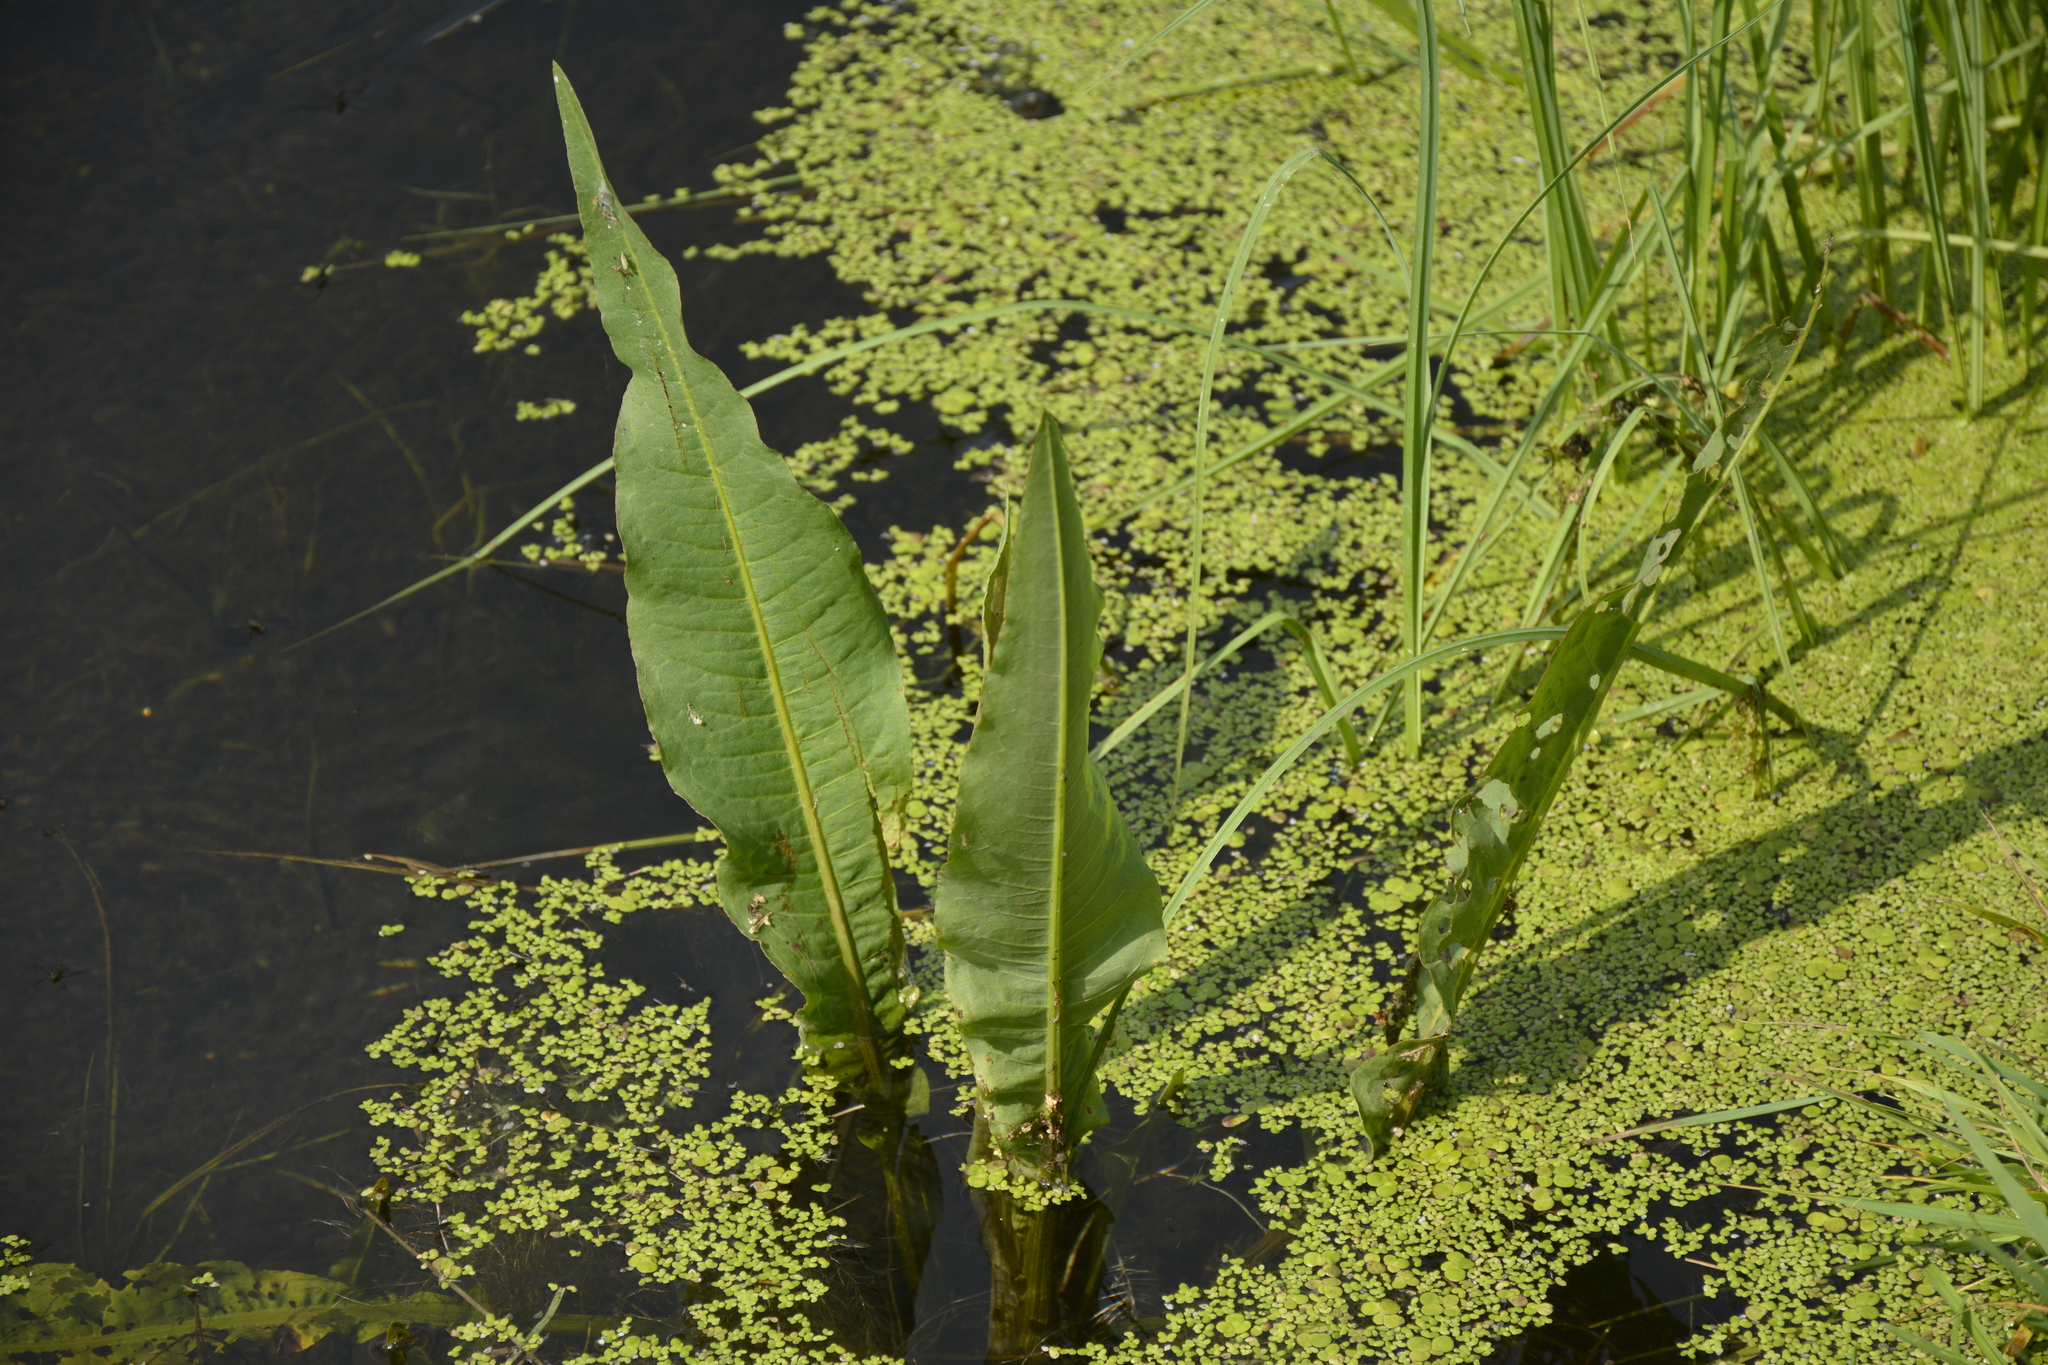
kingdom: Plantae
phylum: Tracheophyta
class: Magnoliopsida
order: Caryophyllales
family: Polygonaceae
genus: Rumex
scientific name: Rumex hydrolapathum
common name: Water dock
